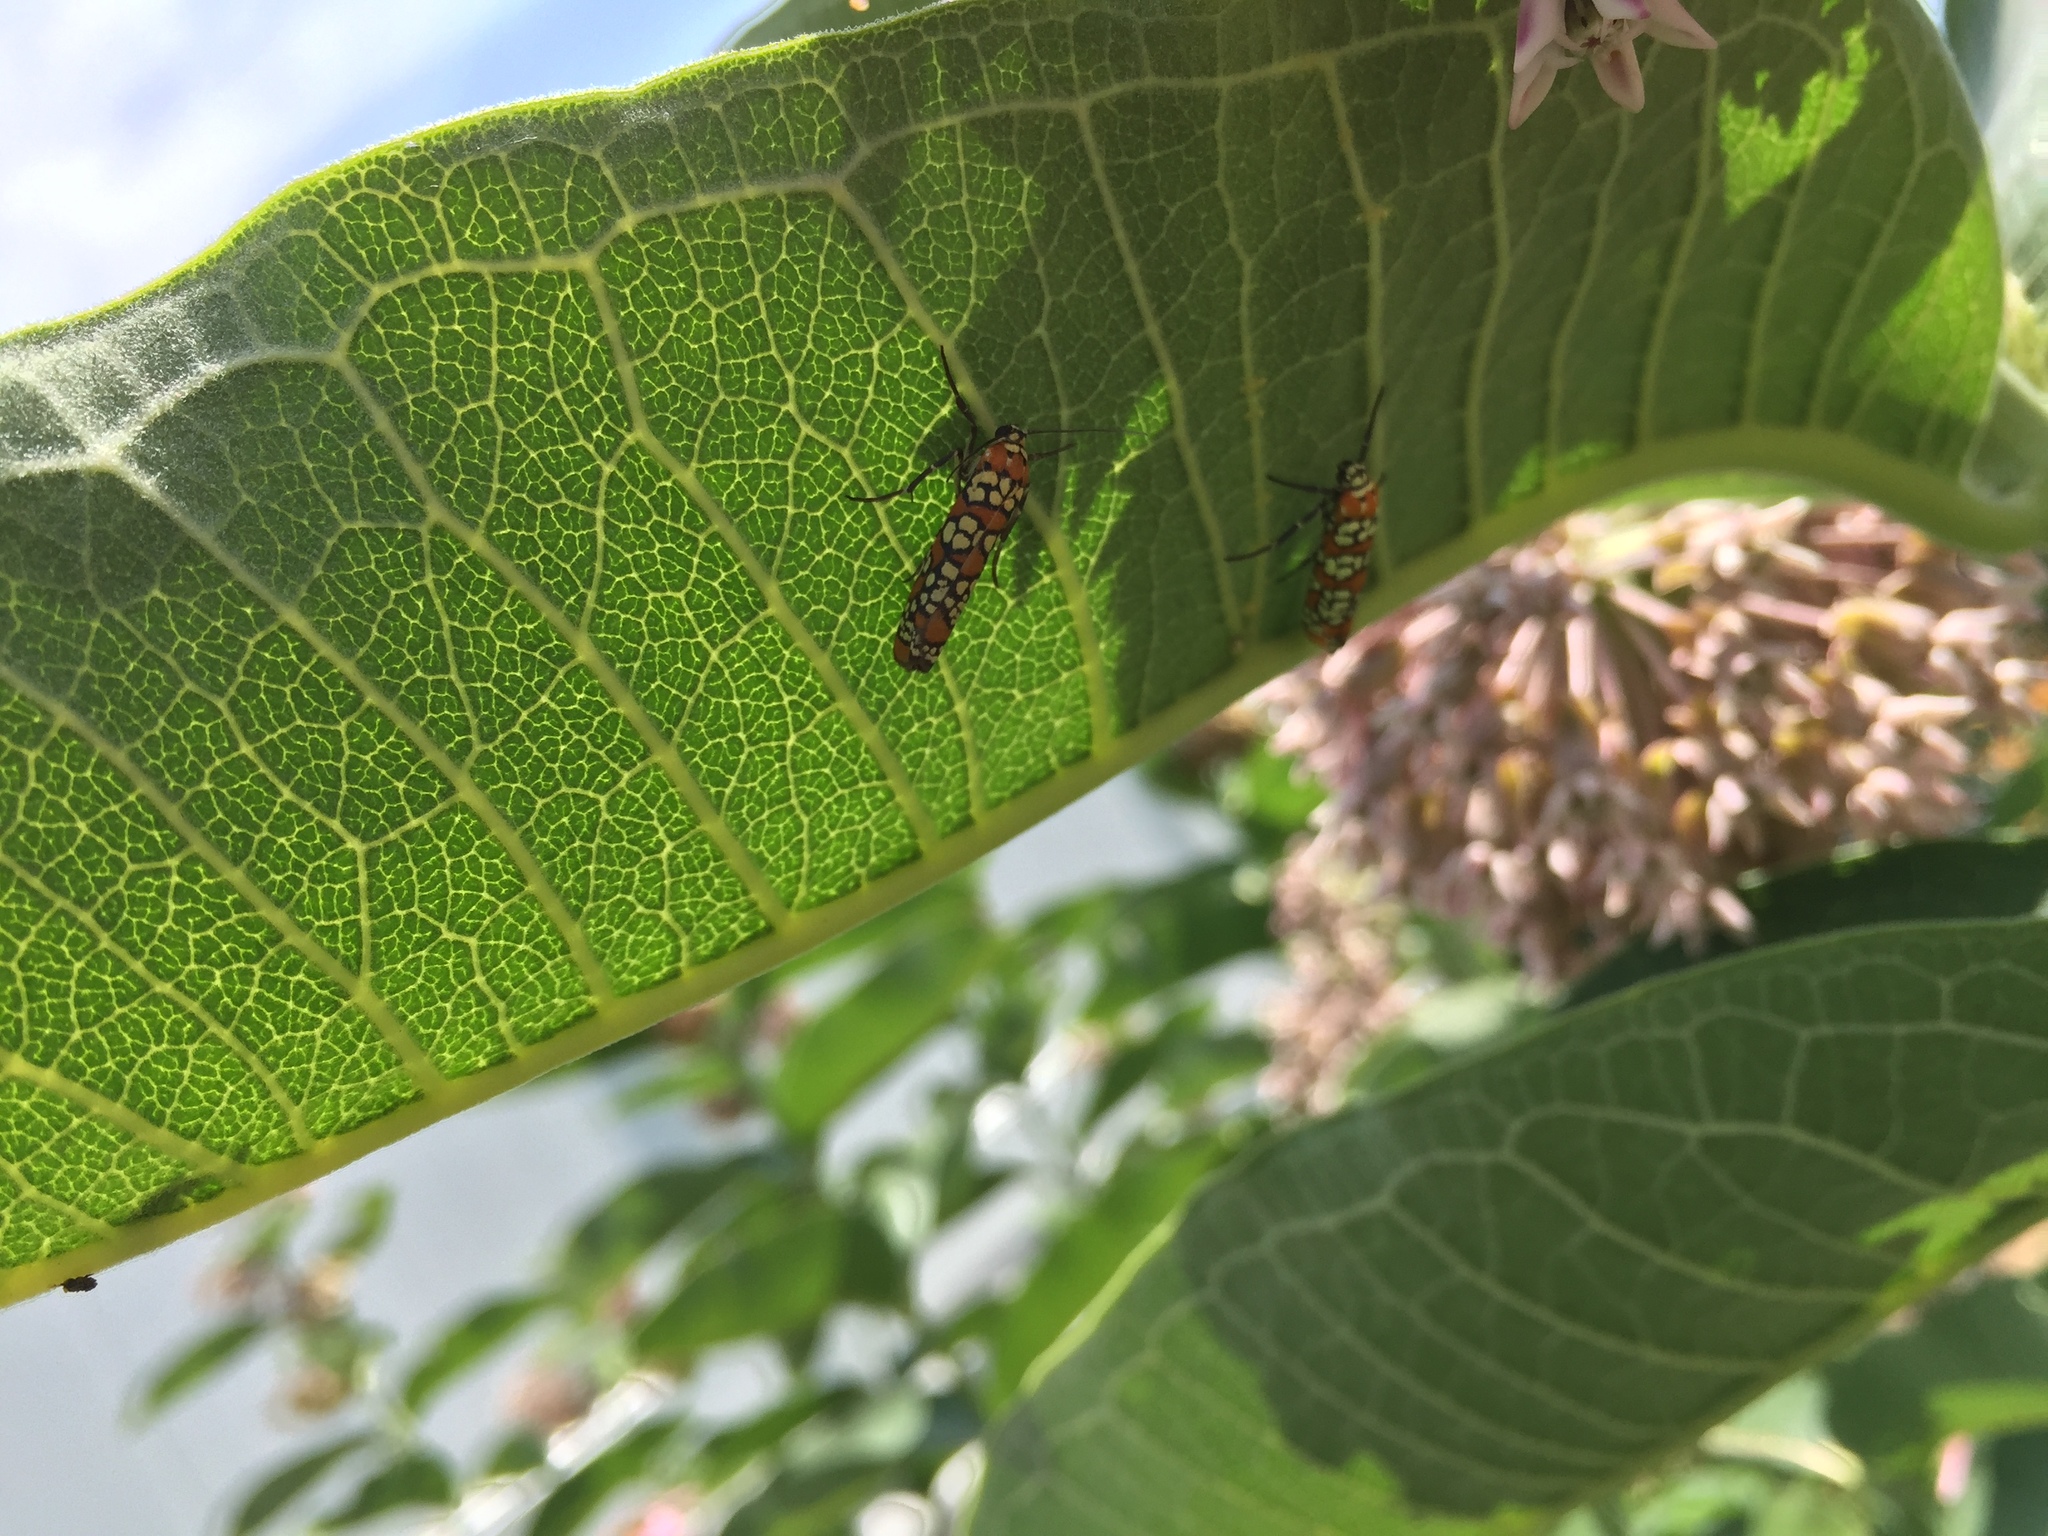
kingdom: Animalia
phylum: Arthropoda
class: Insecta
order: Lepidoptera
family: Attevidae
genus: Atteva
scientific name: Atteva punctella
